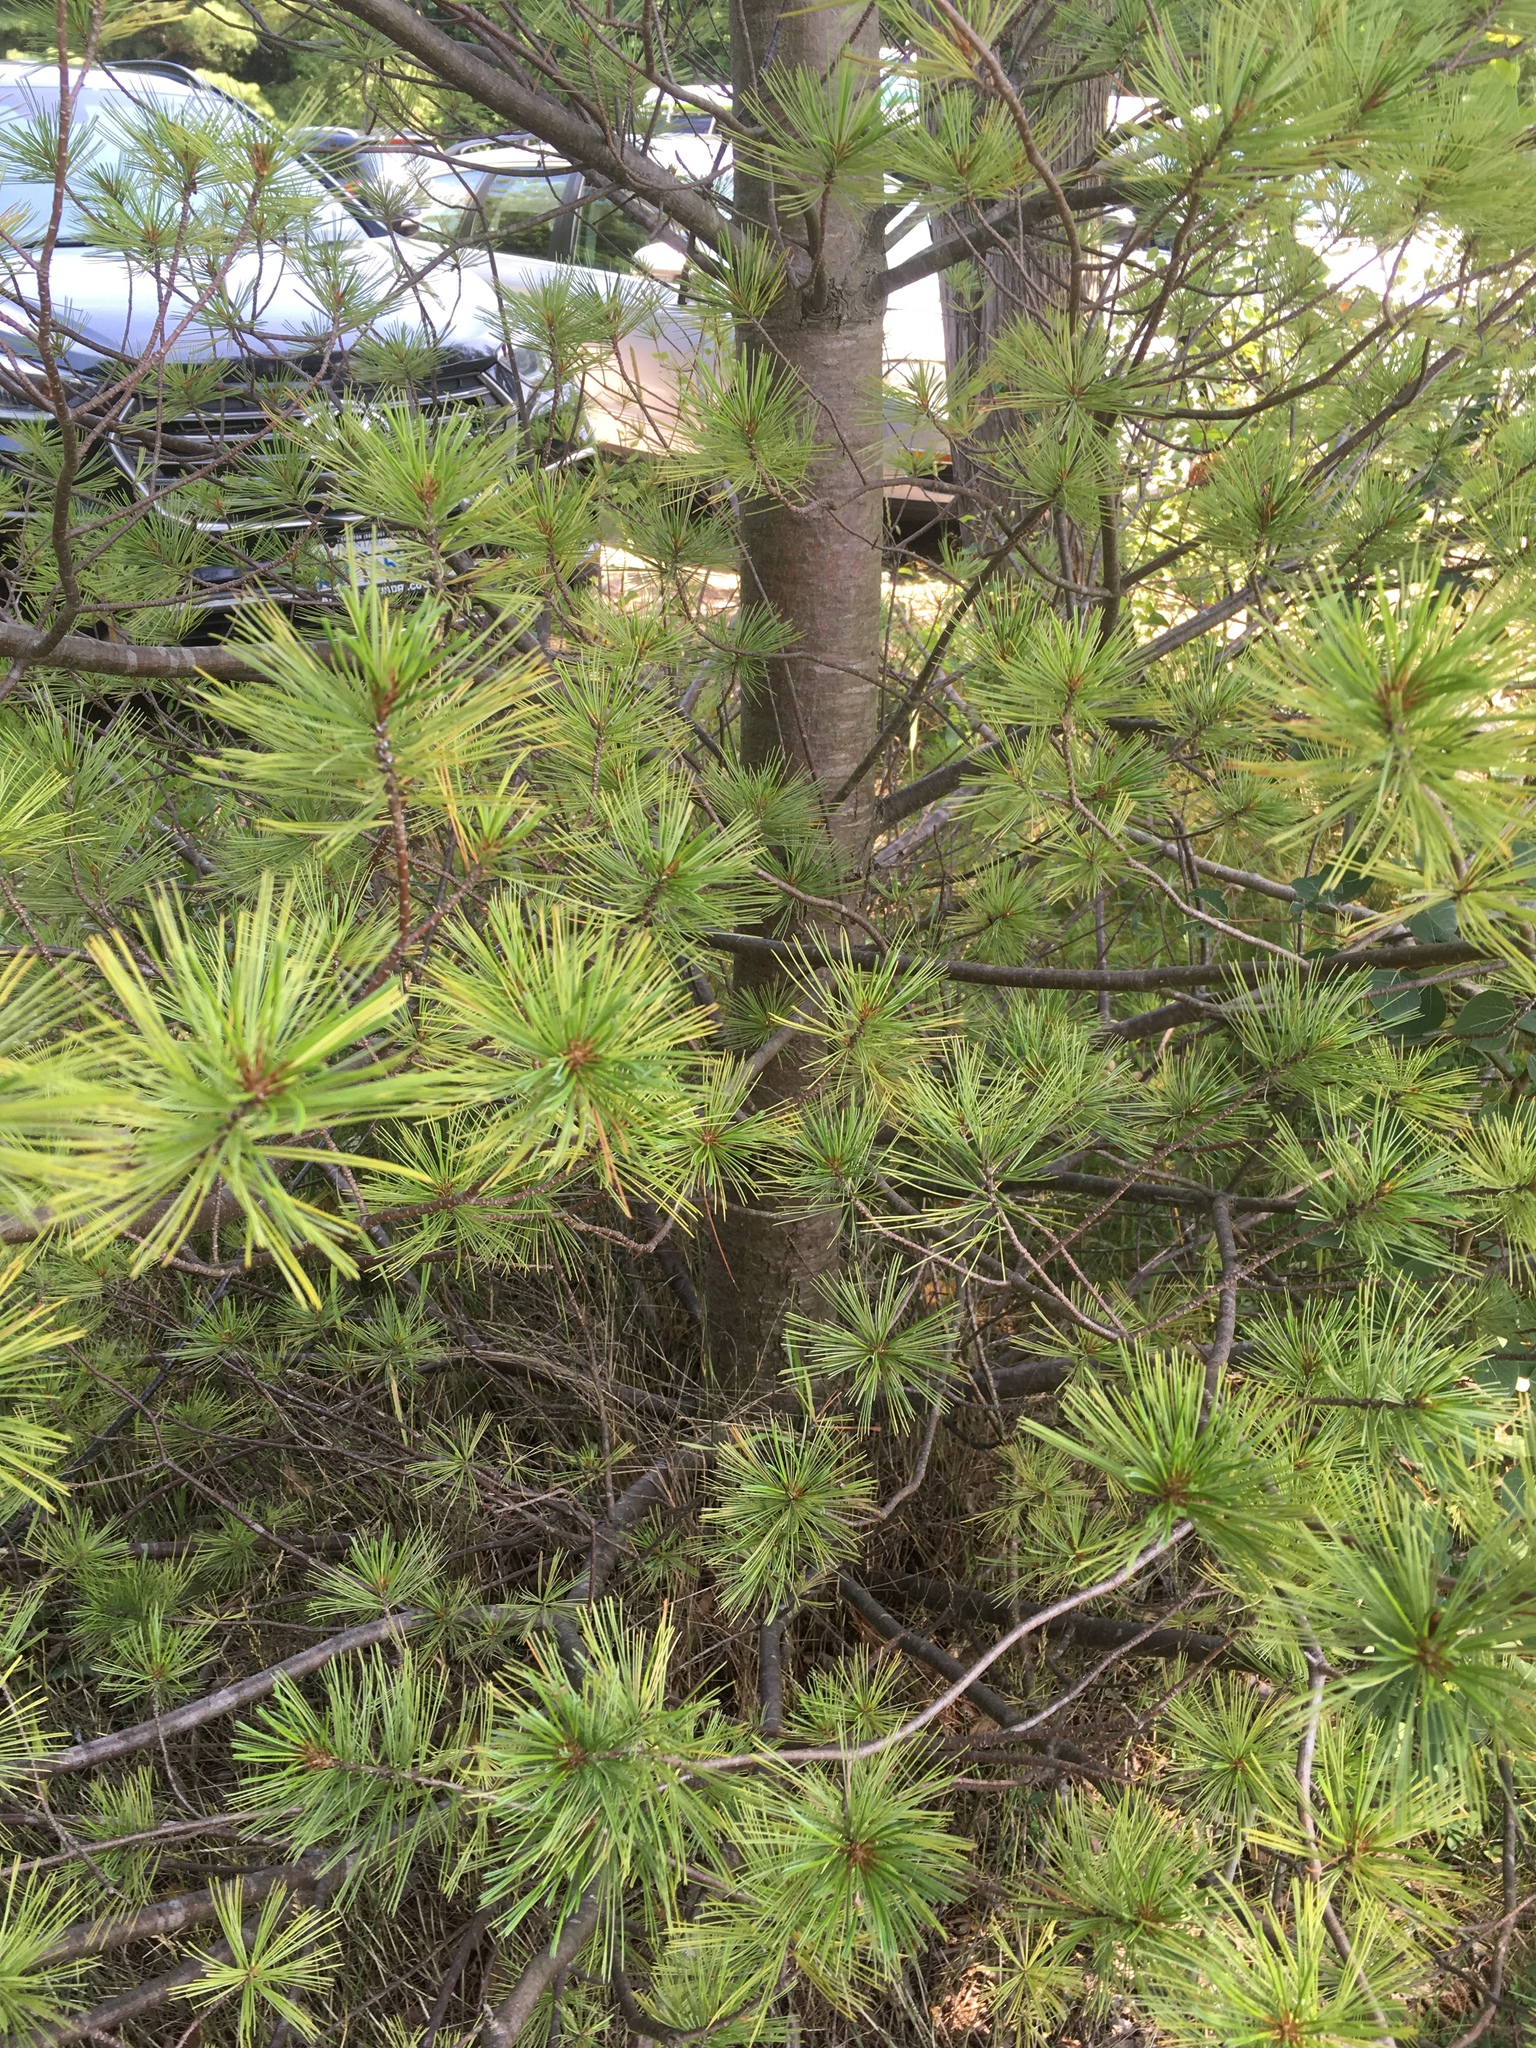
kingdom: Plantae
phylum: Tracheophyta
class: Pinopsida
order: Pinales
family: Pinaceae
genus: Pinus
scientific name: Pinus strobus
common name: Weymouth pine
